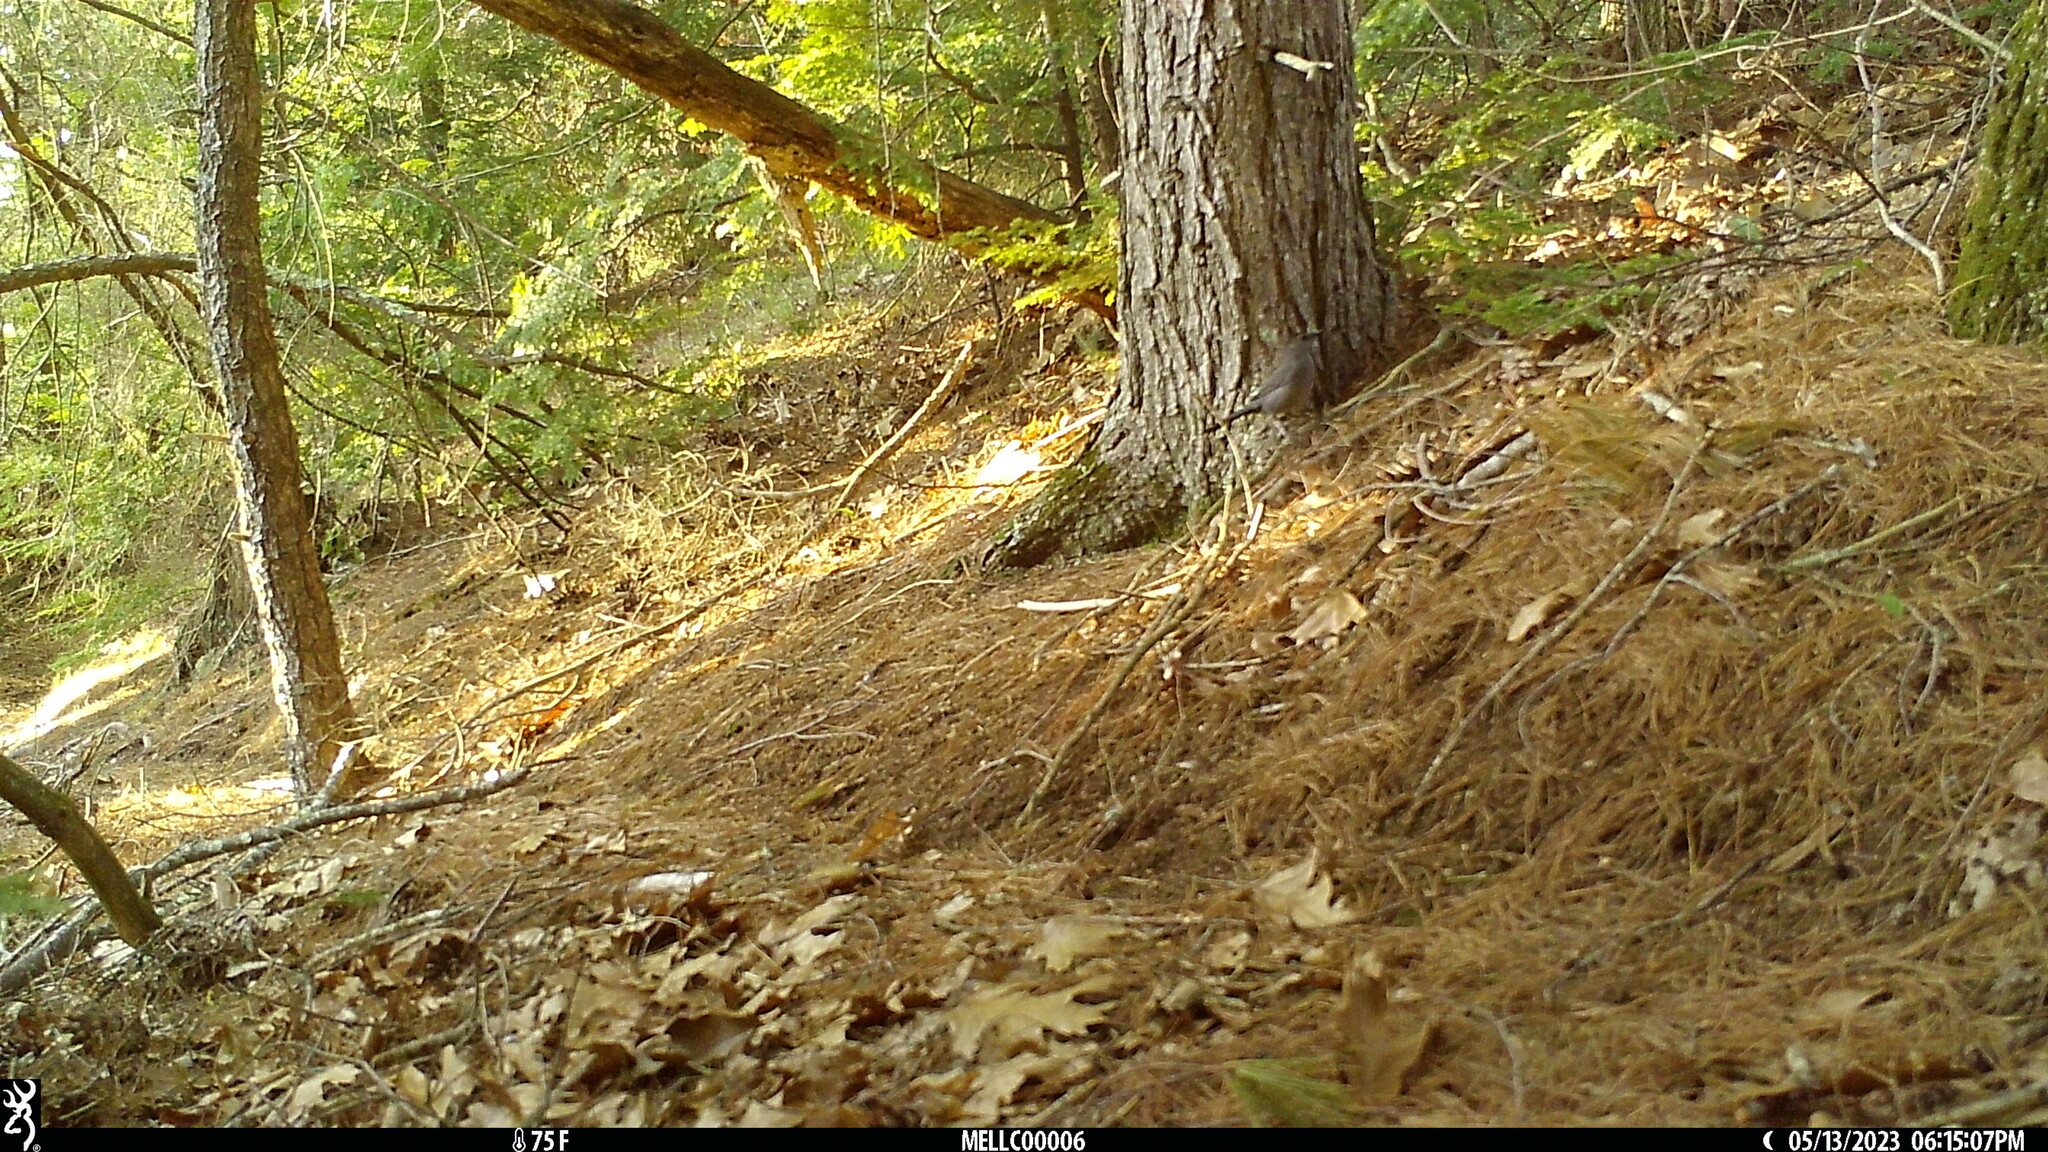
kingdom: Animalia
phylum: Chordata
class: Aves
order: Passeriformes
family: Mimidae
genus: Dumetella
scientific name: Dumetella carolinensis
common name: Gray catbird
